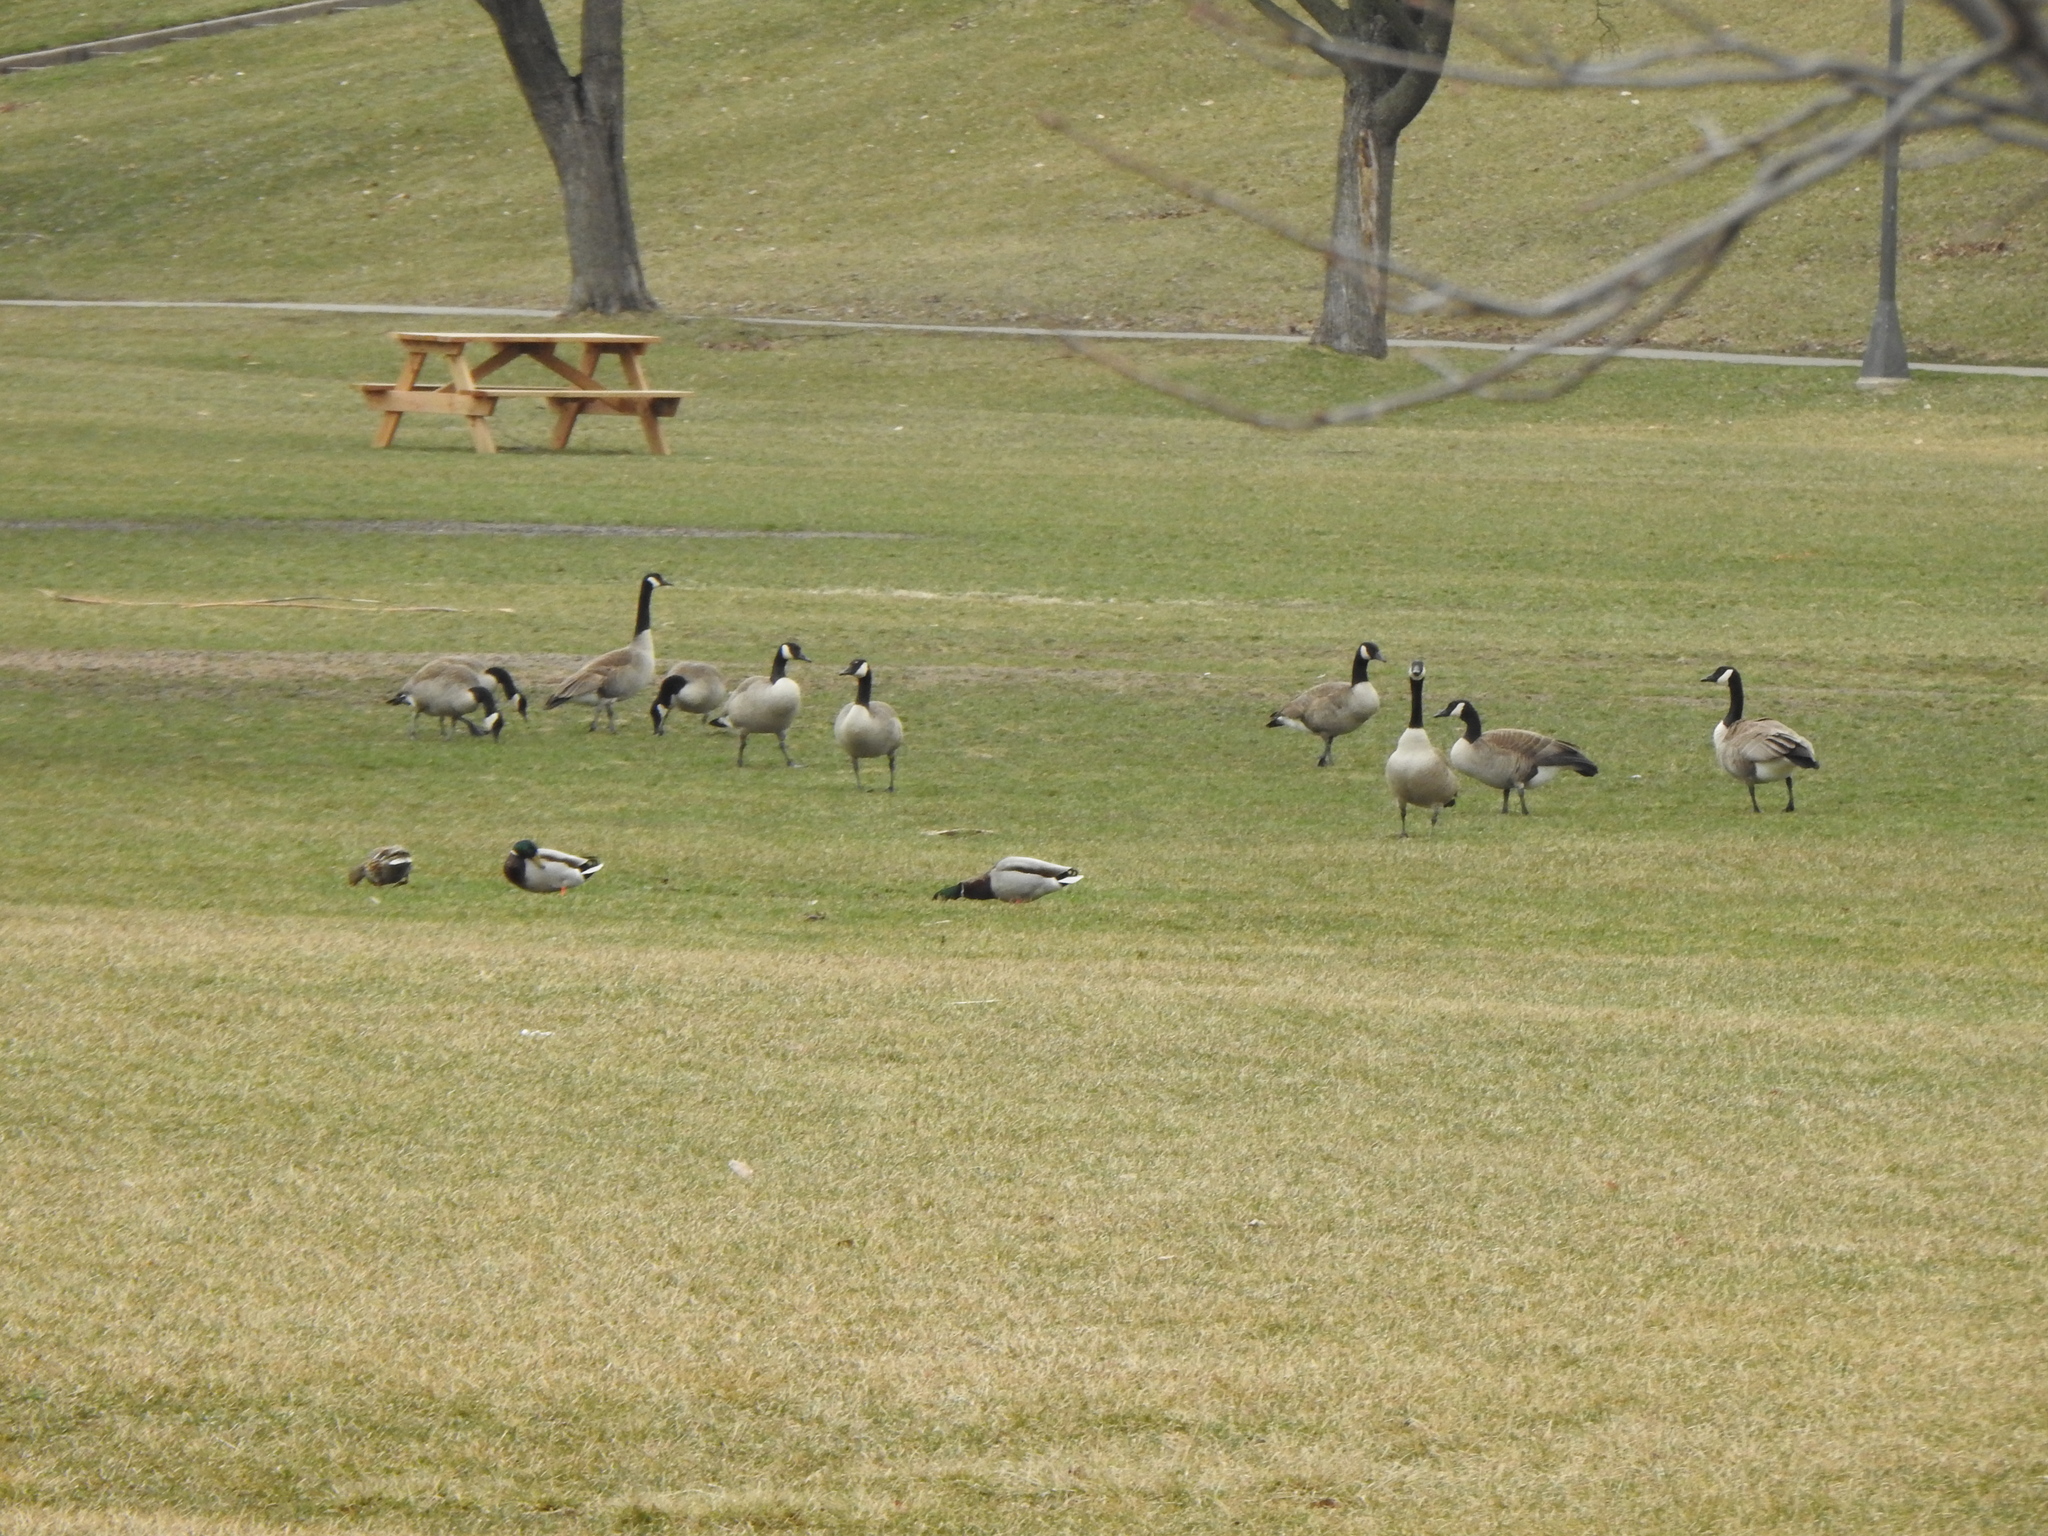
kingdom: Animalia
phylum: Chordata
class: Aves
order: Anseriformes
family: Anatidae
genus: Branta
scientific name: Branta canadensis
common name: Canada goose
